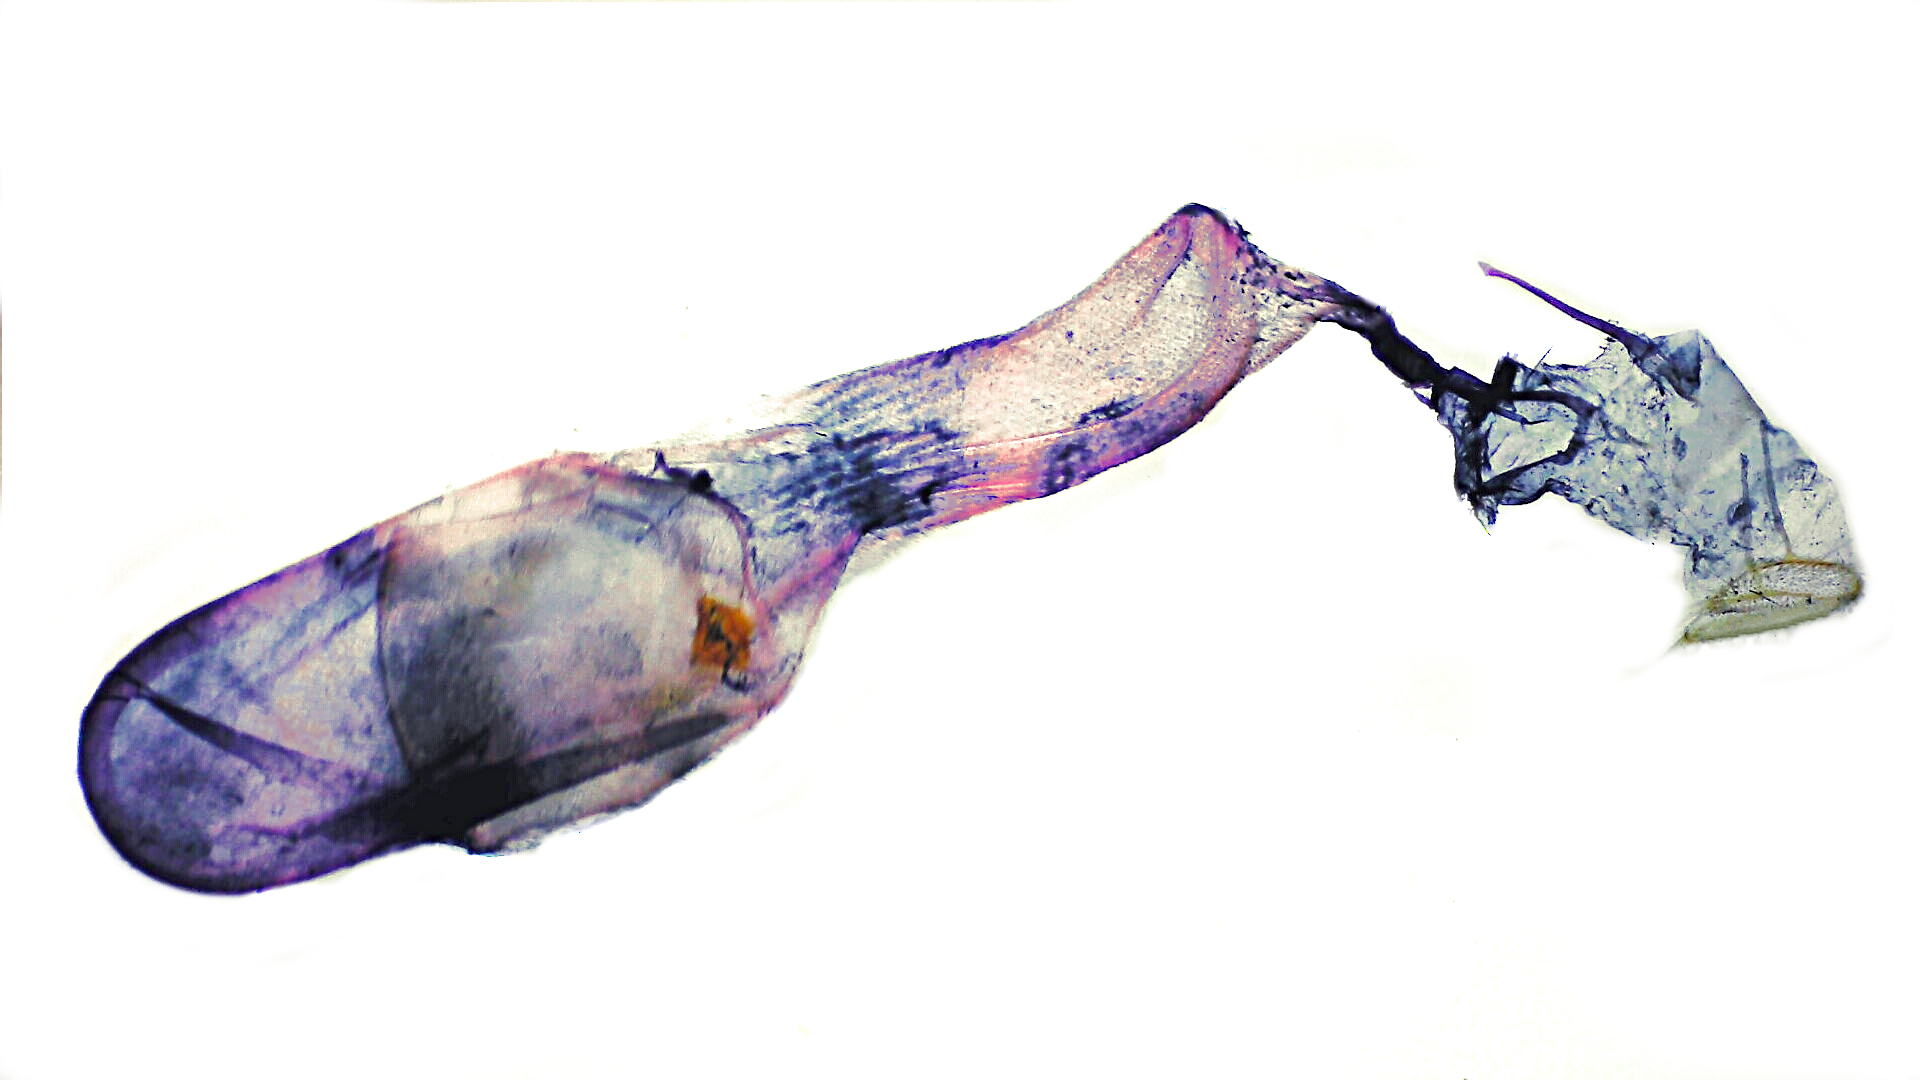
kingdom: Animalia
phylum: Arthropoda
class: Insecta
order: Lepidoptera
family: Crambidae
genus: Herpetogramma
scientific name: Herpetogramma aquilonalis
